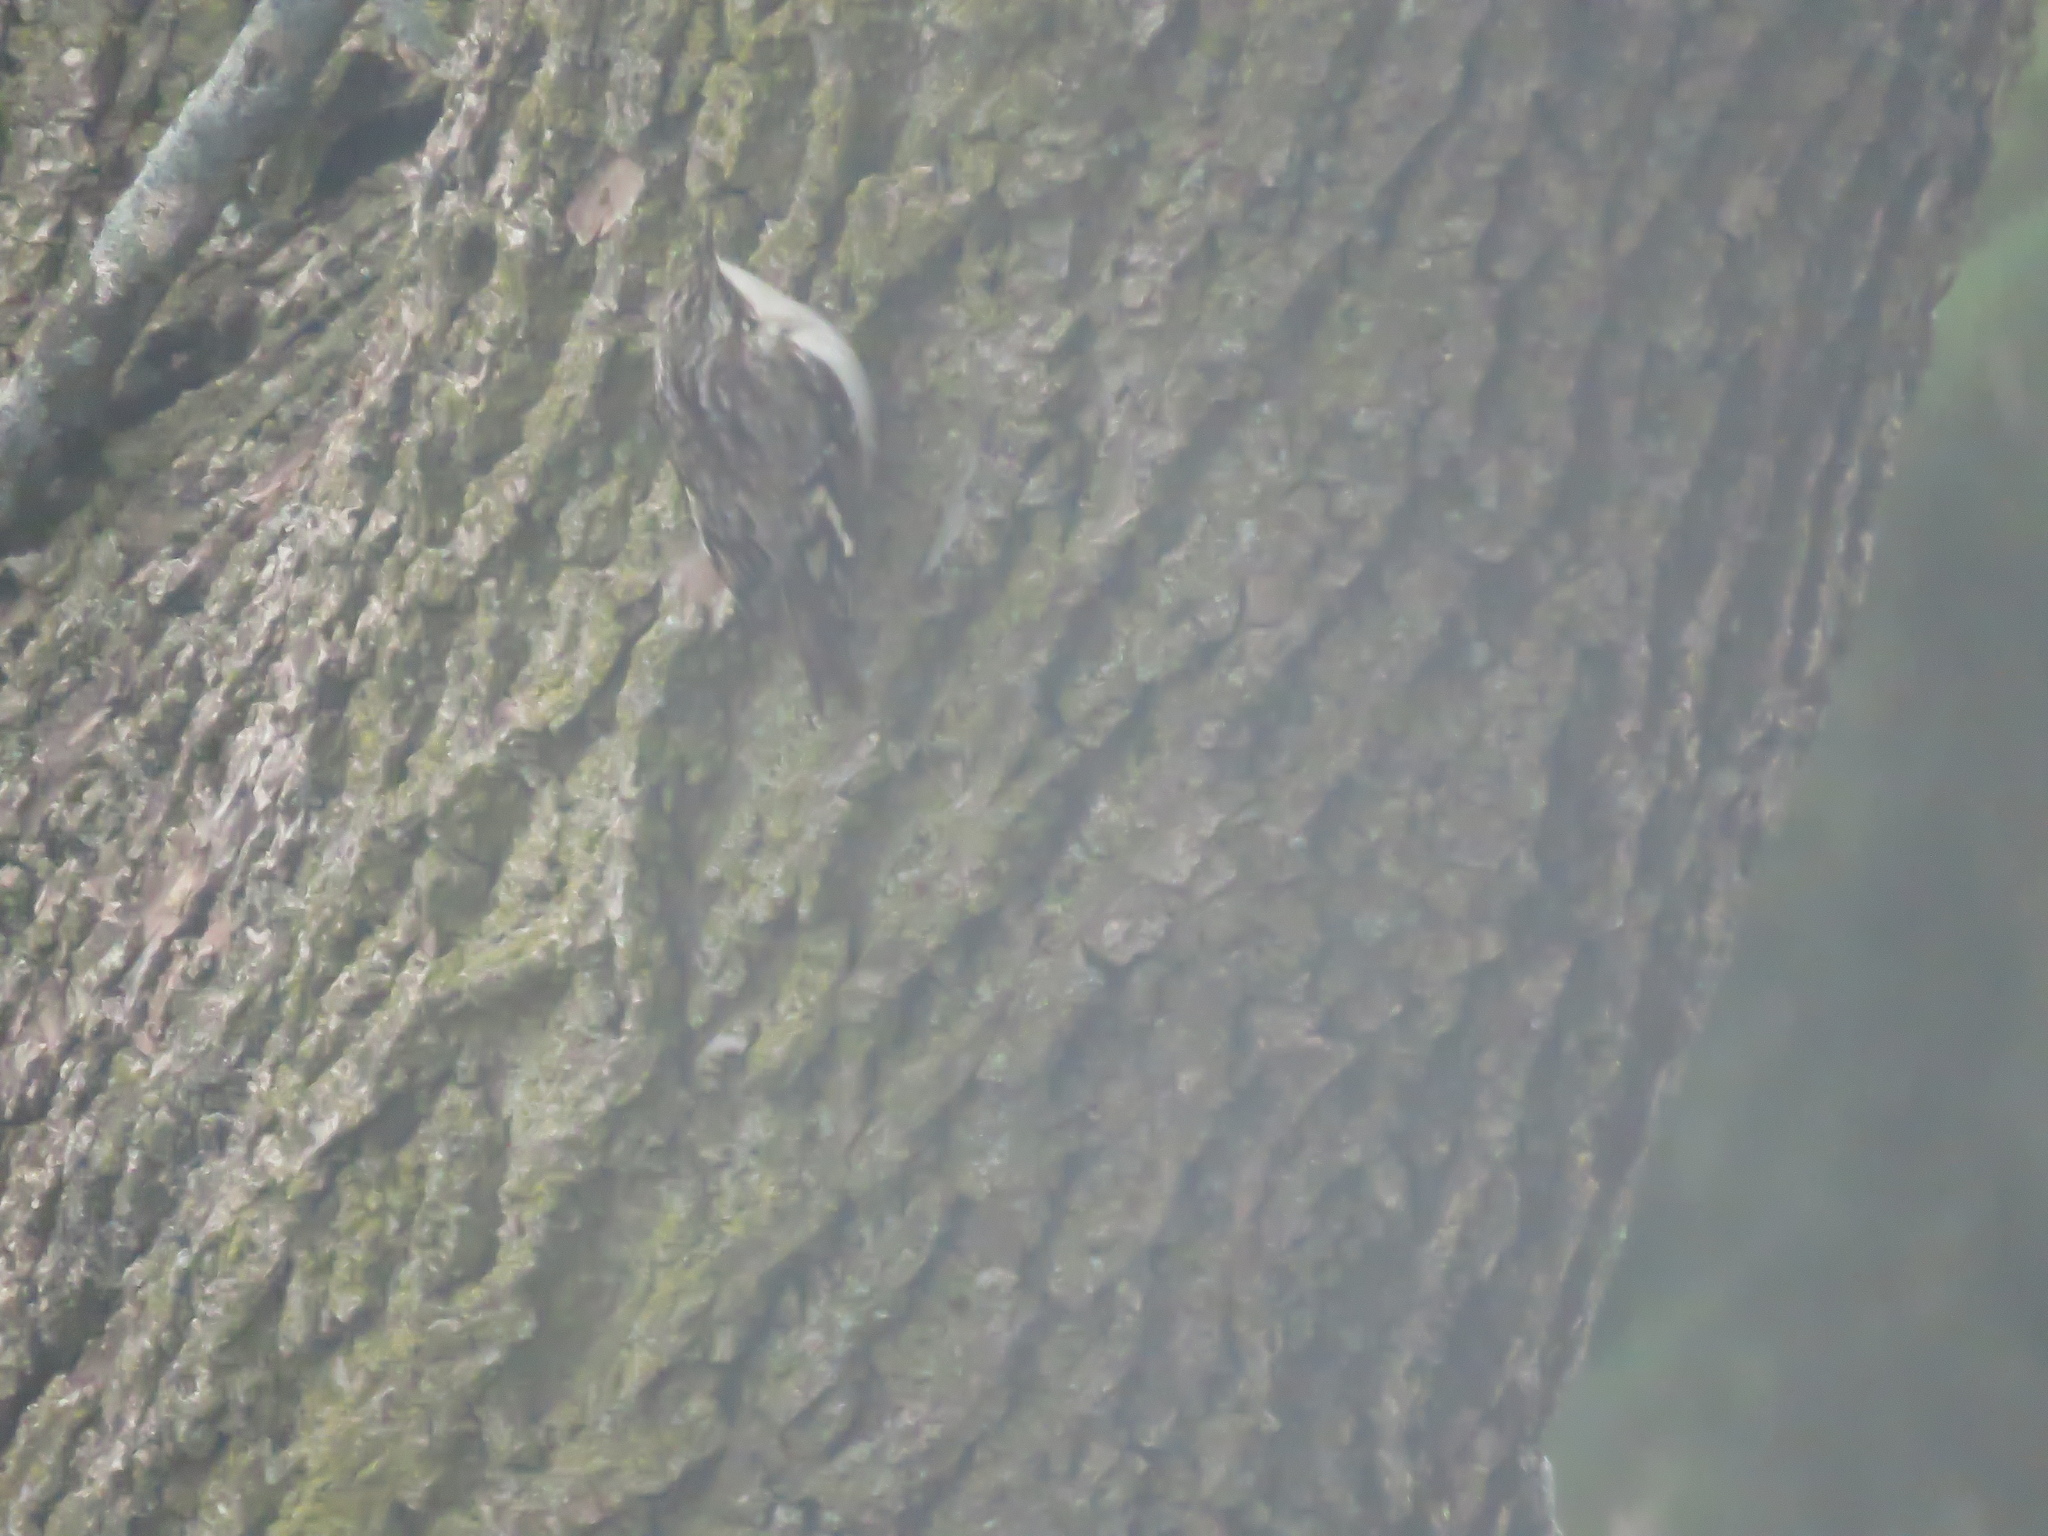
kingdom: Animalia
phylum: Chordata
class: Aves
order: Passeriformes
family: Certhiidae
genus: Certhia
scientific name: Certhia americana
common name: Brown creeper
